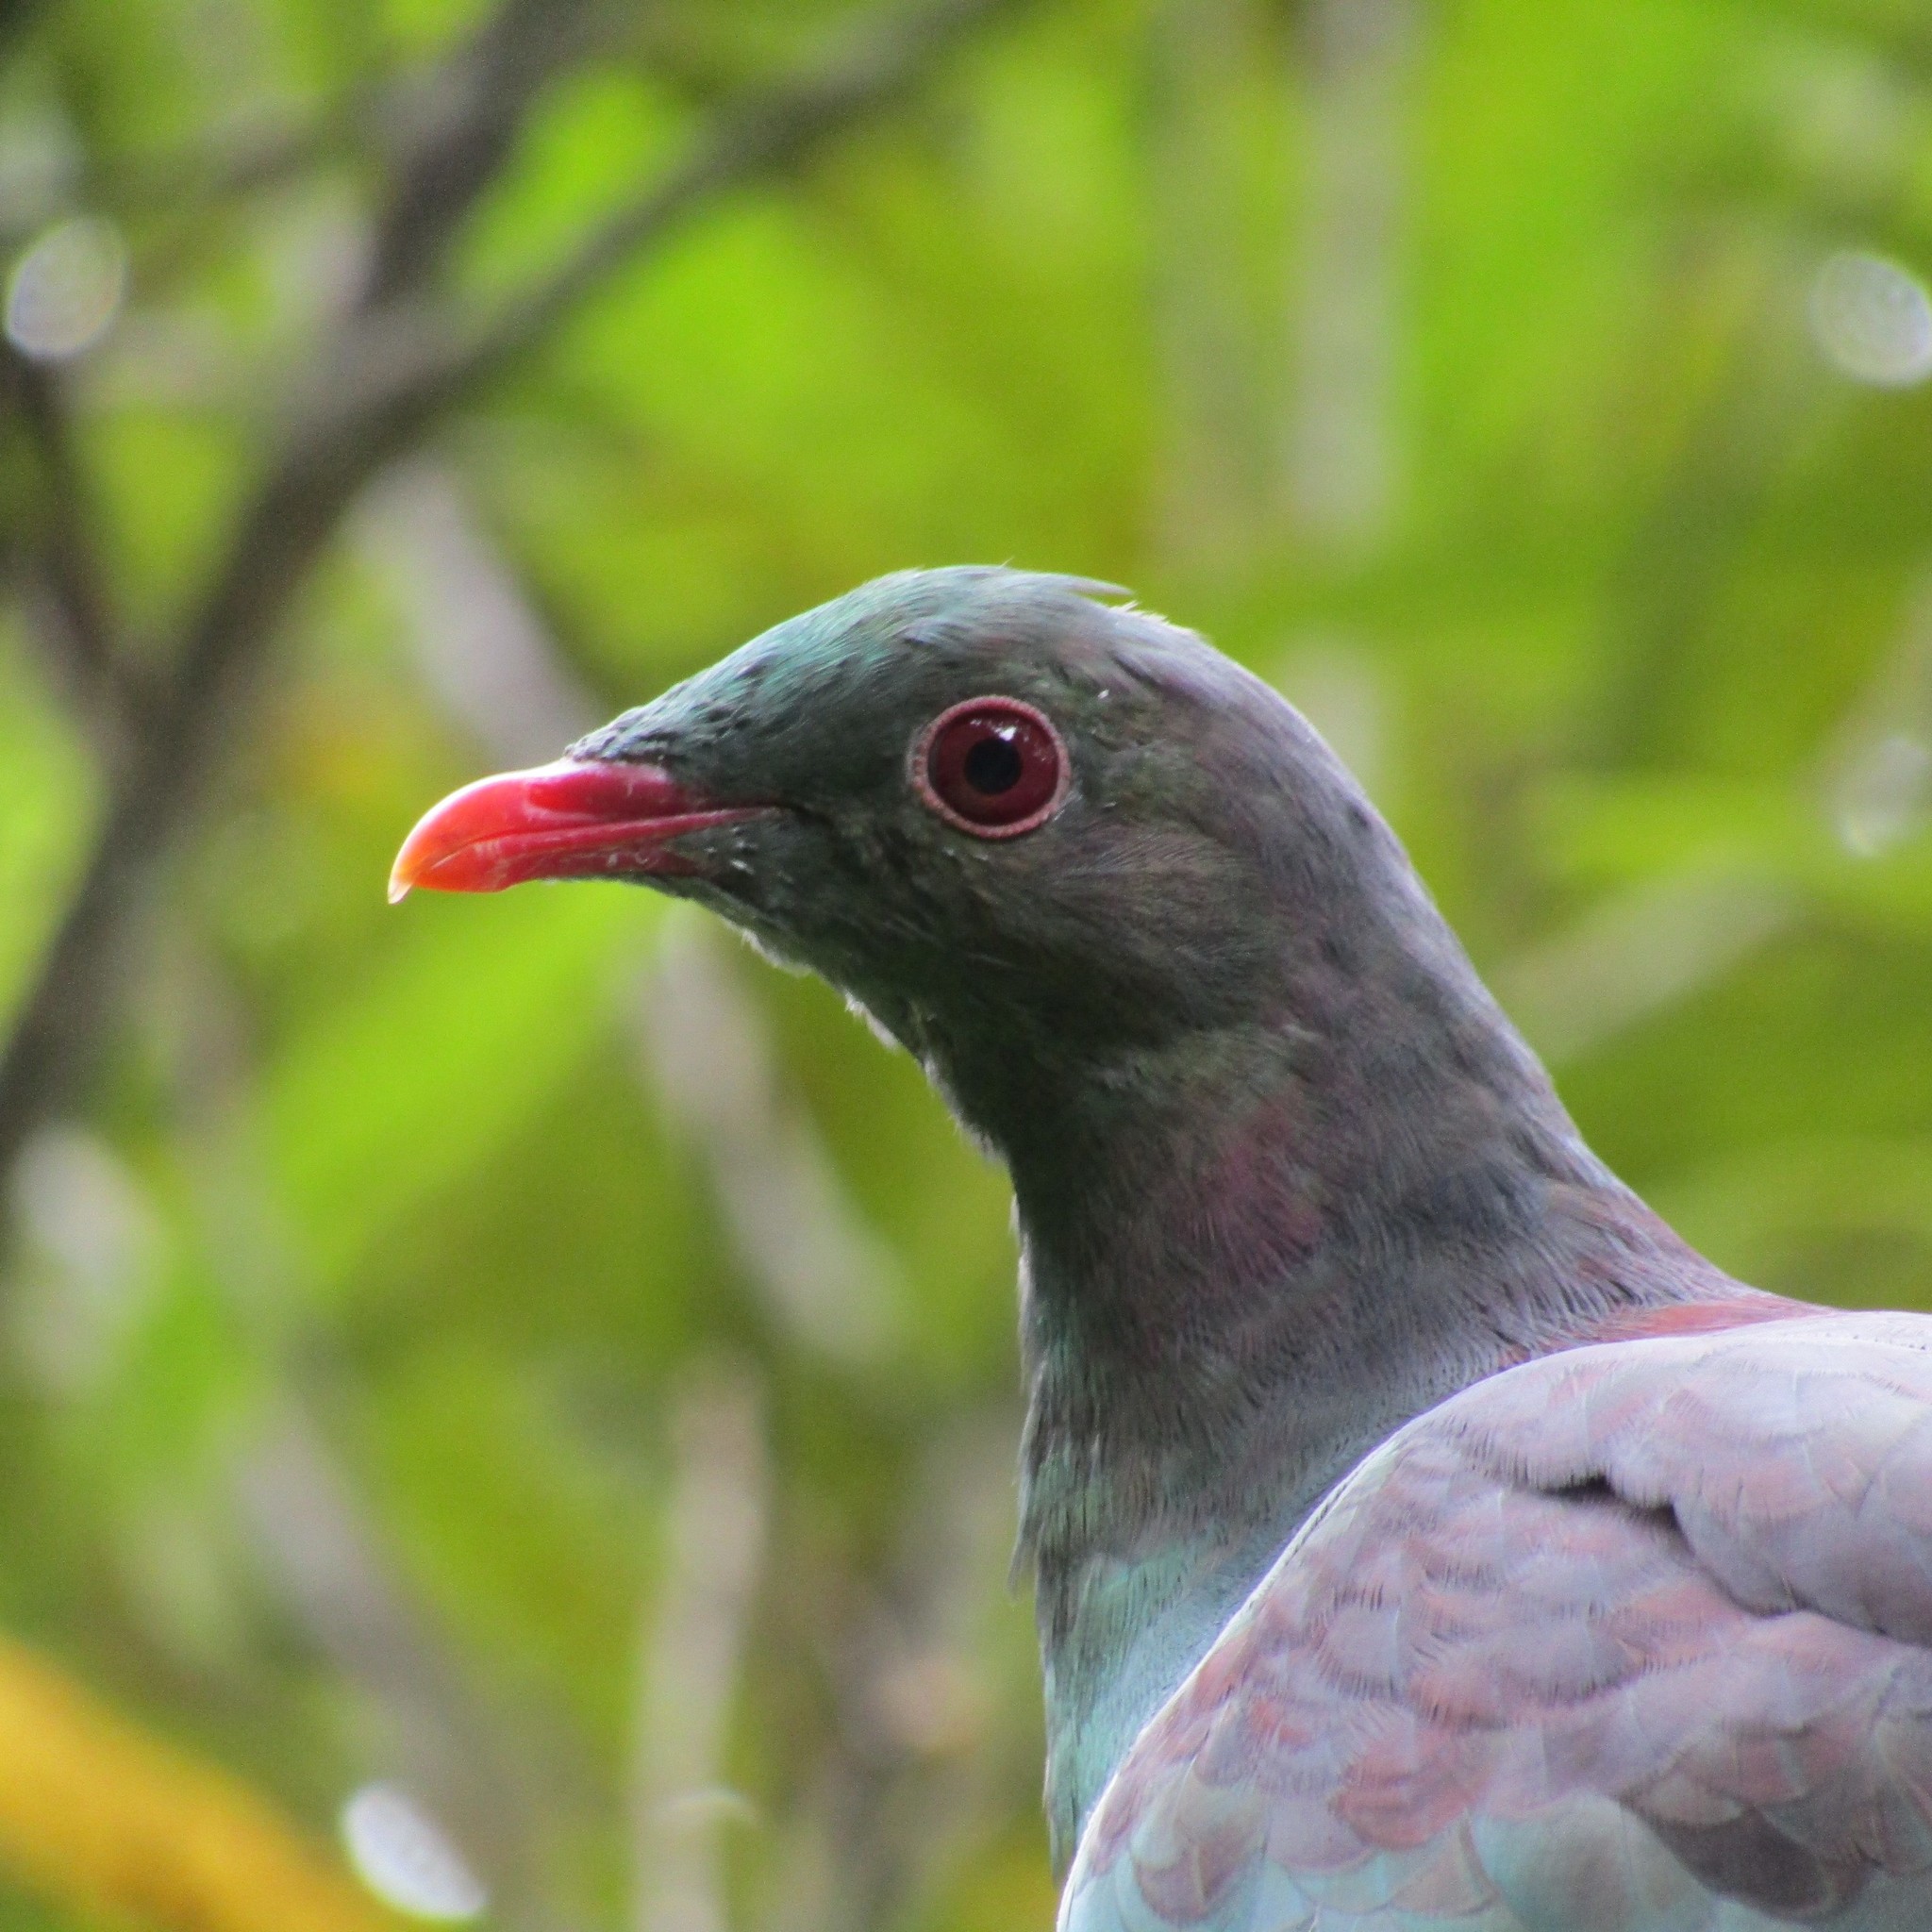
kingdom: Animalia
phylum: Chordata
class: Aves
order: Columbiformes
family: Columbidae
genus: Hemiphaga
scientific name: Hemiphaga novaeseelandiae
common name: New zealand pigeon
